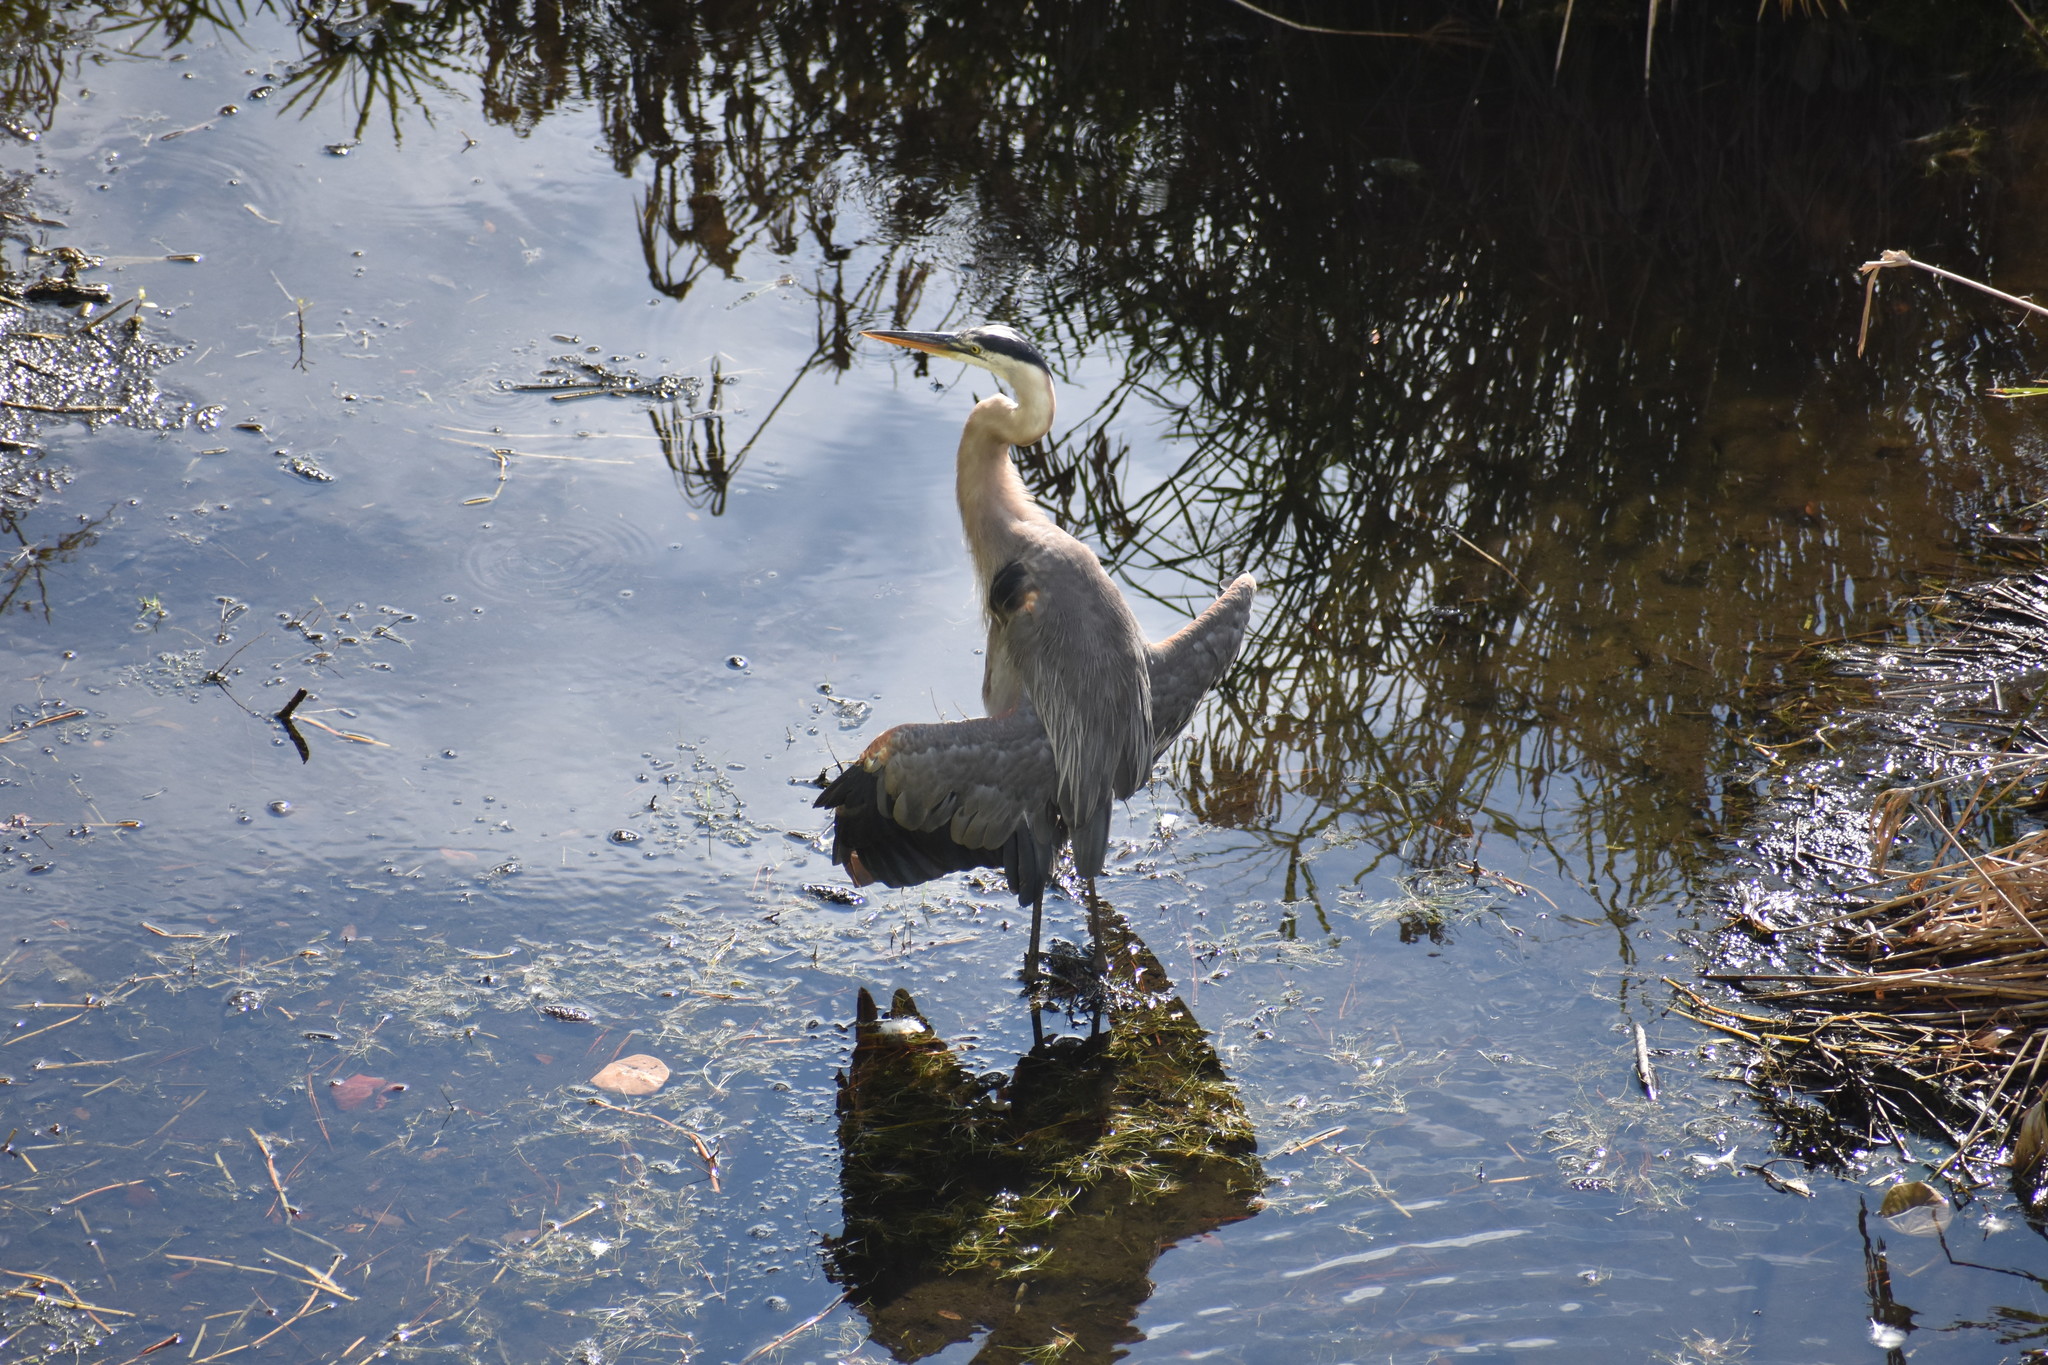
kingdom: Animalia
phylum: Chordata
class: Aves
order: Pelecaniformes
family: Ardeidae
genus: Ardea
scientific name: Ardea herodias
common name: Great blue heron
